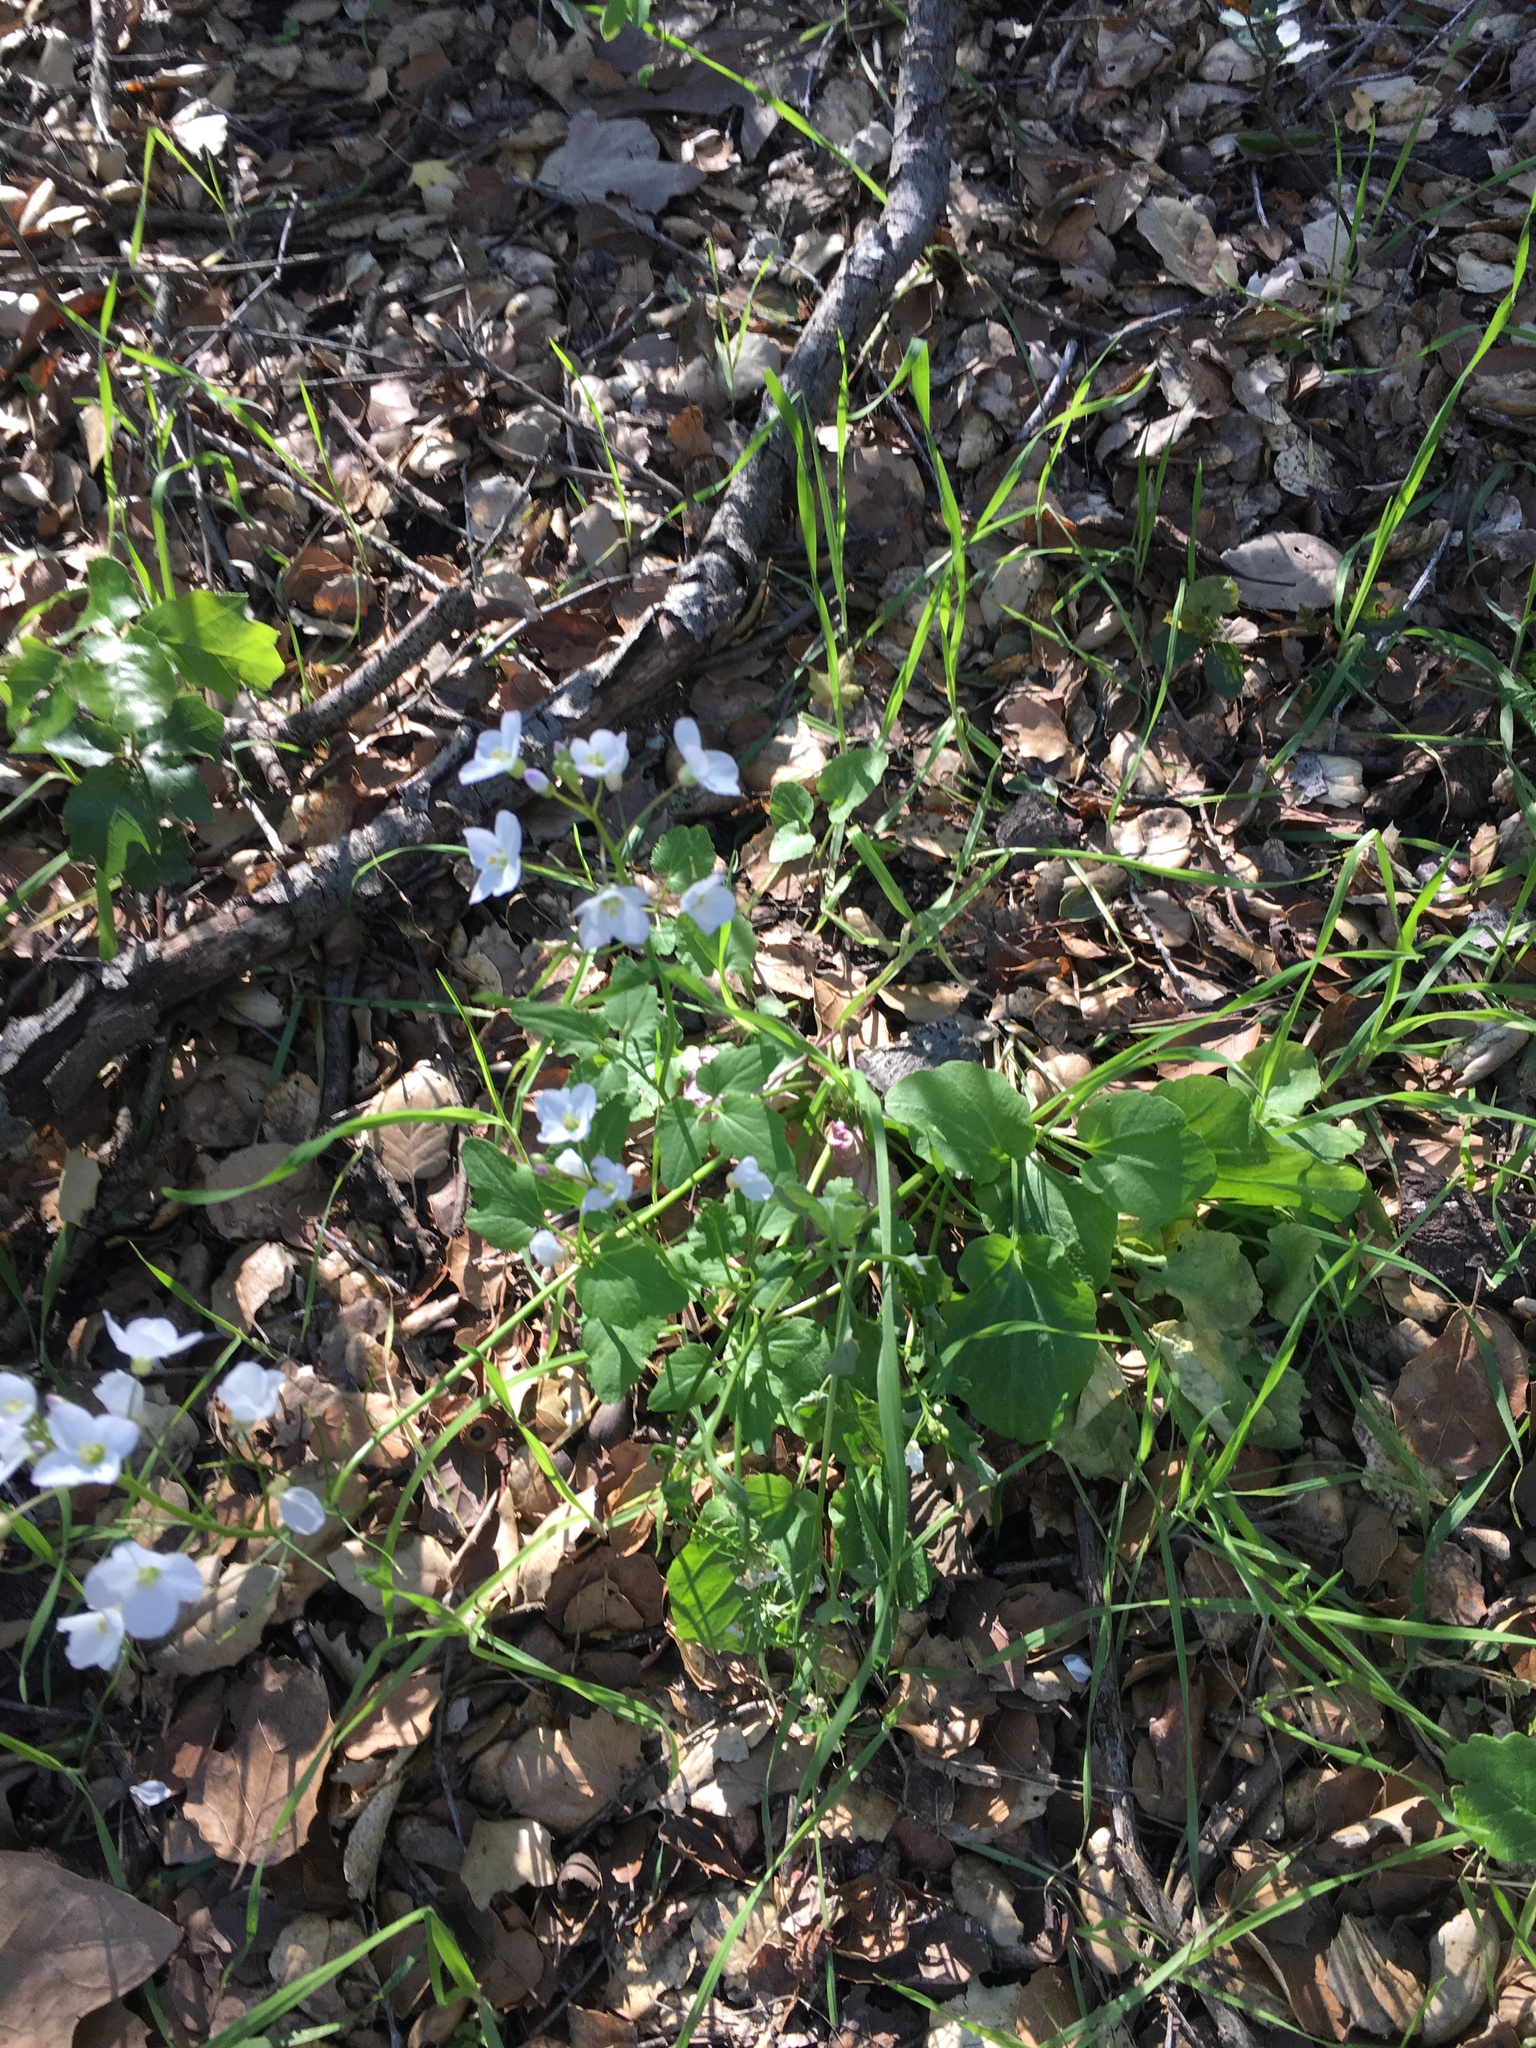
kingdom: Plantae
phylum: Tracheophyta
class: Magnoliopsida
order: Brassicales
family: Brassicaceae
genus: Cardamine
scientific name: Cardamine californica
